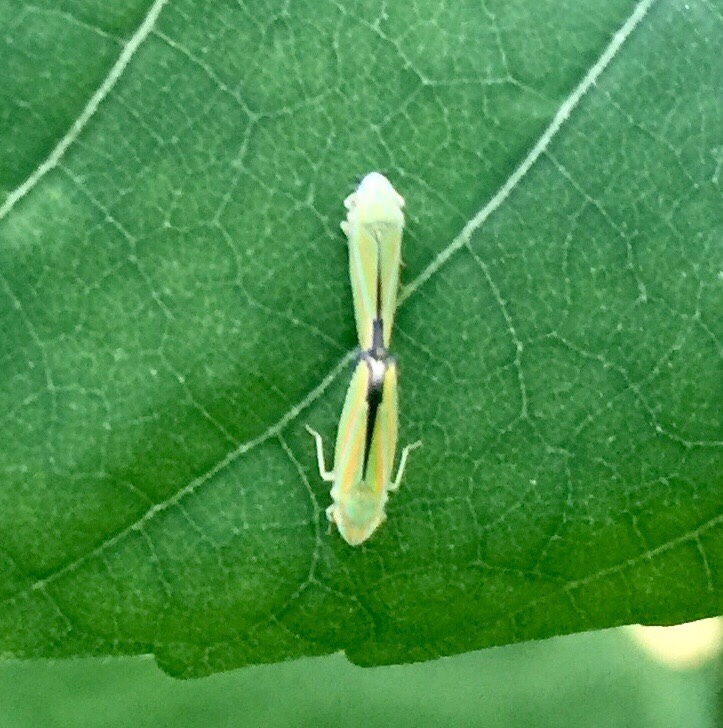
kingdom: Animalia
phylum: Arthropoda
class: Insecta
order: Hemiptera
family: Cicadellidae
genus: Graphocephala
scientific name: Graphocephala versuta
